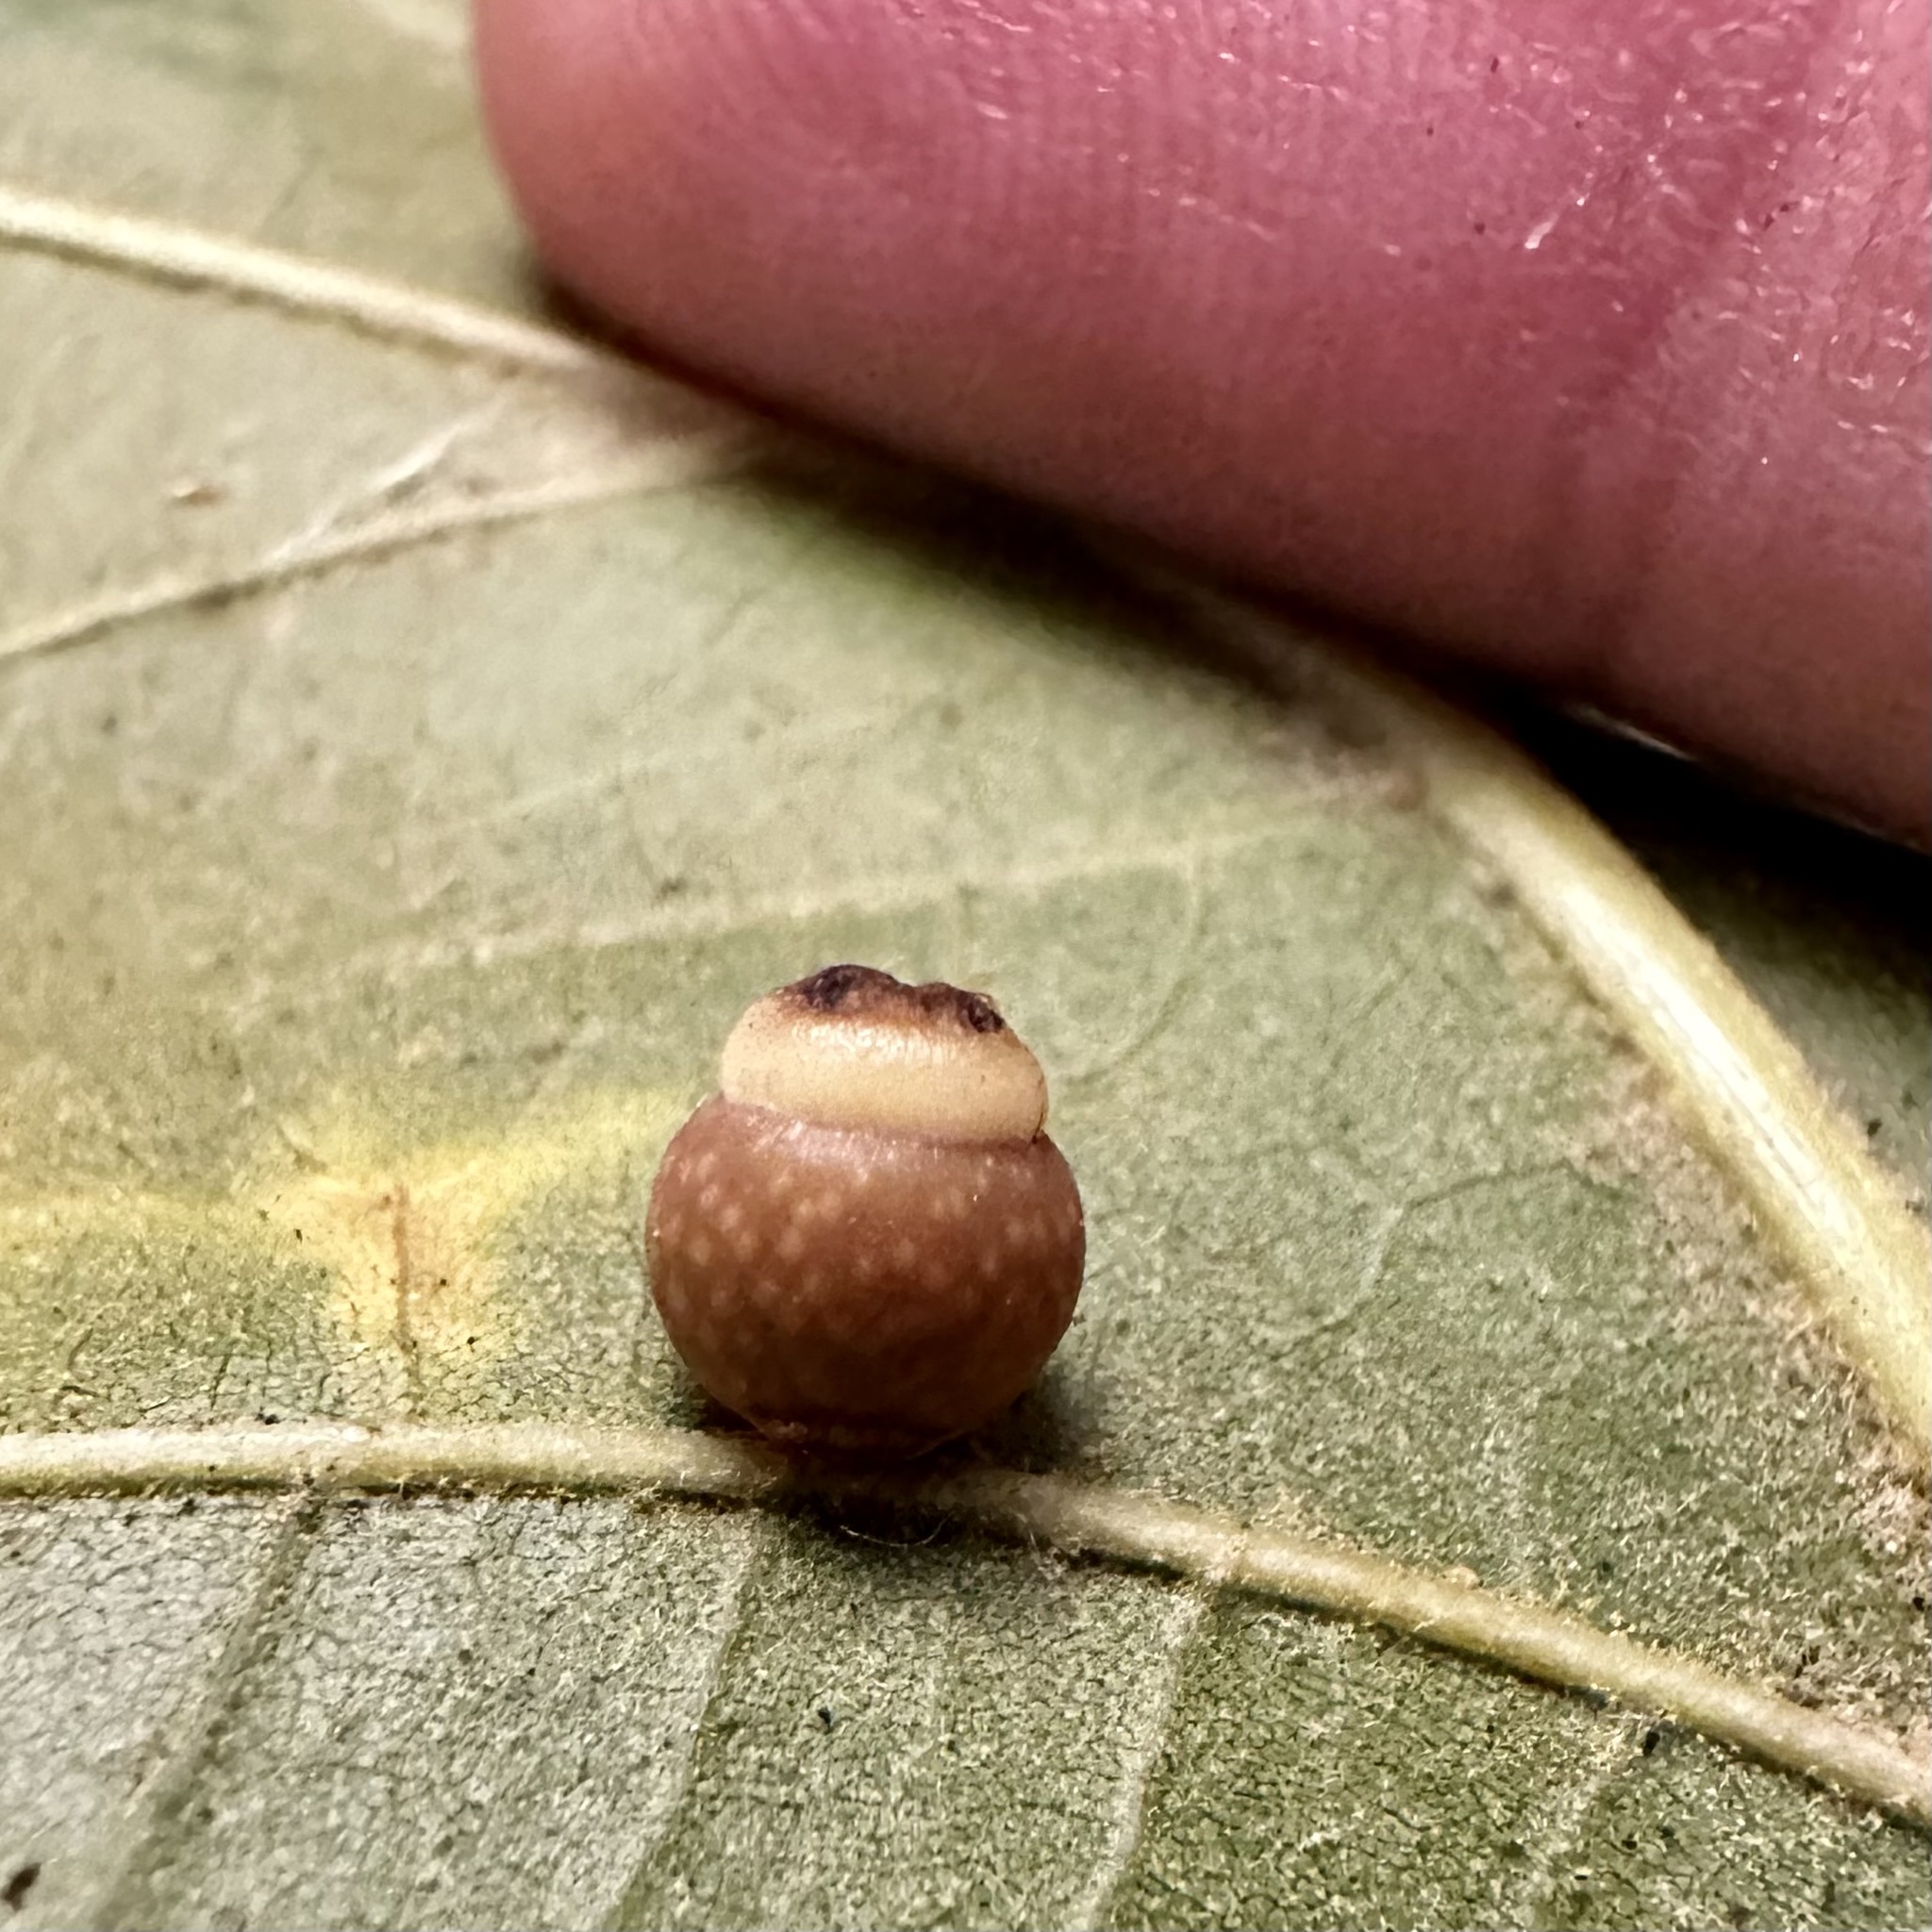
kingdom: Animalia
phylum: Arthropoda
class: Insecta
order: Hymenoptera
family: Cynipidae
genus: Kokkocynips
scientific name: Kokkocynips rileyi
